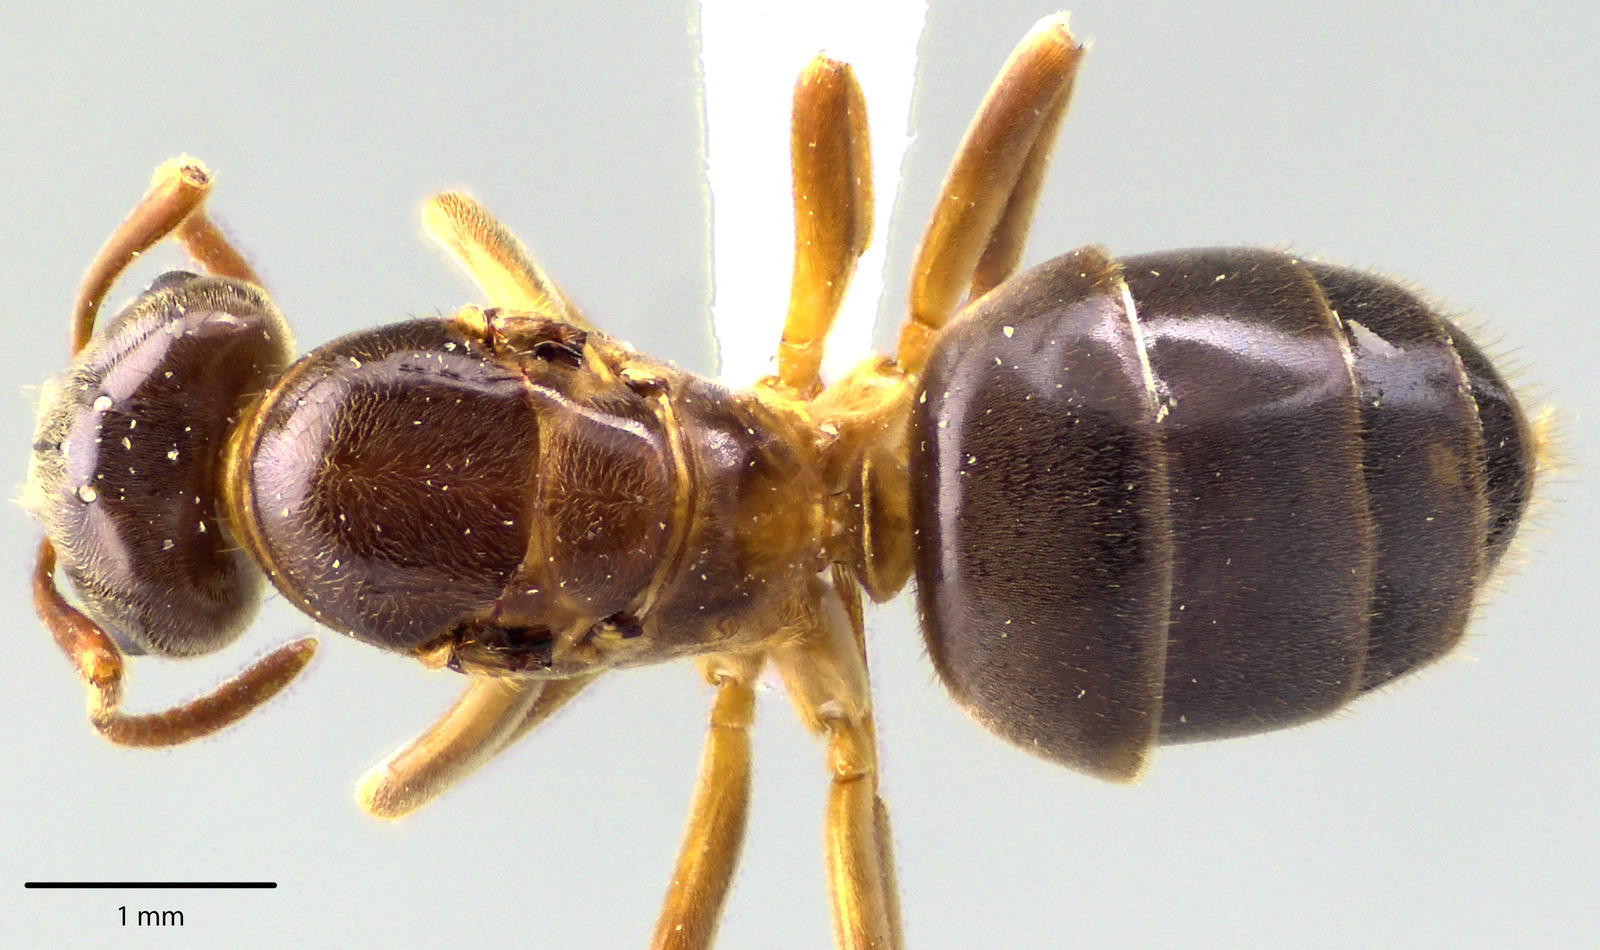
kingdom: Animalia
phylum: Arthropoda
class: Insecta
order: Hymenoptera
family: Formicidae
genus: Lasius
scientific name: Lasius aphidicola
